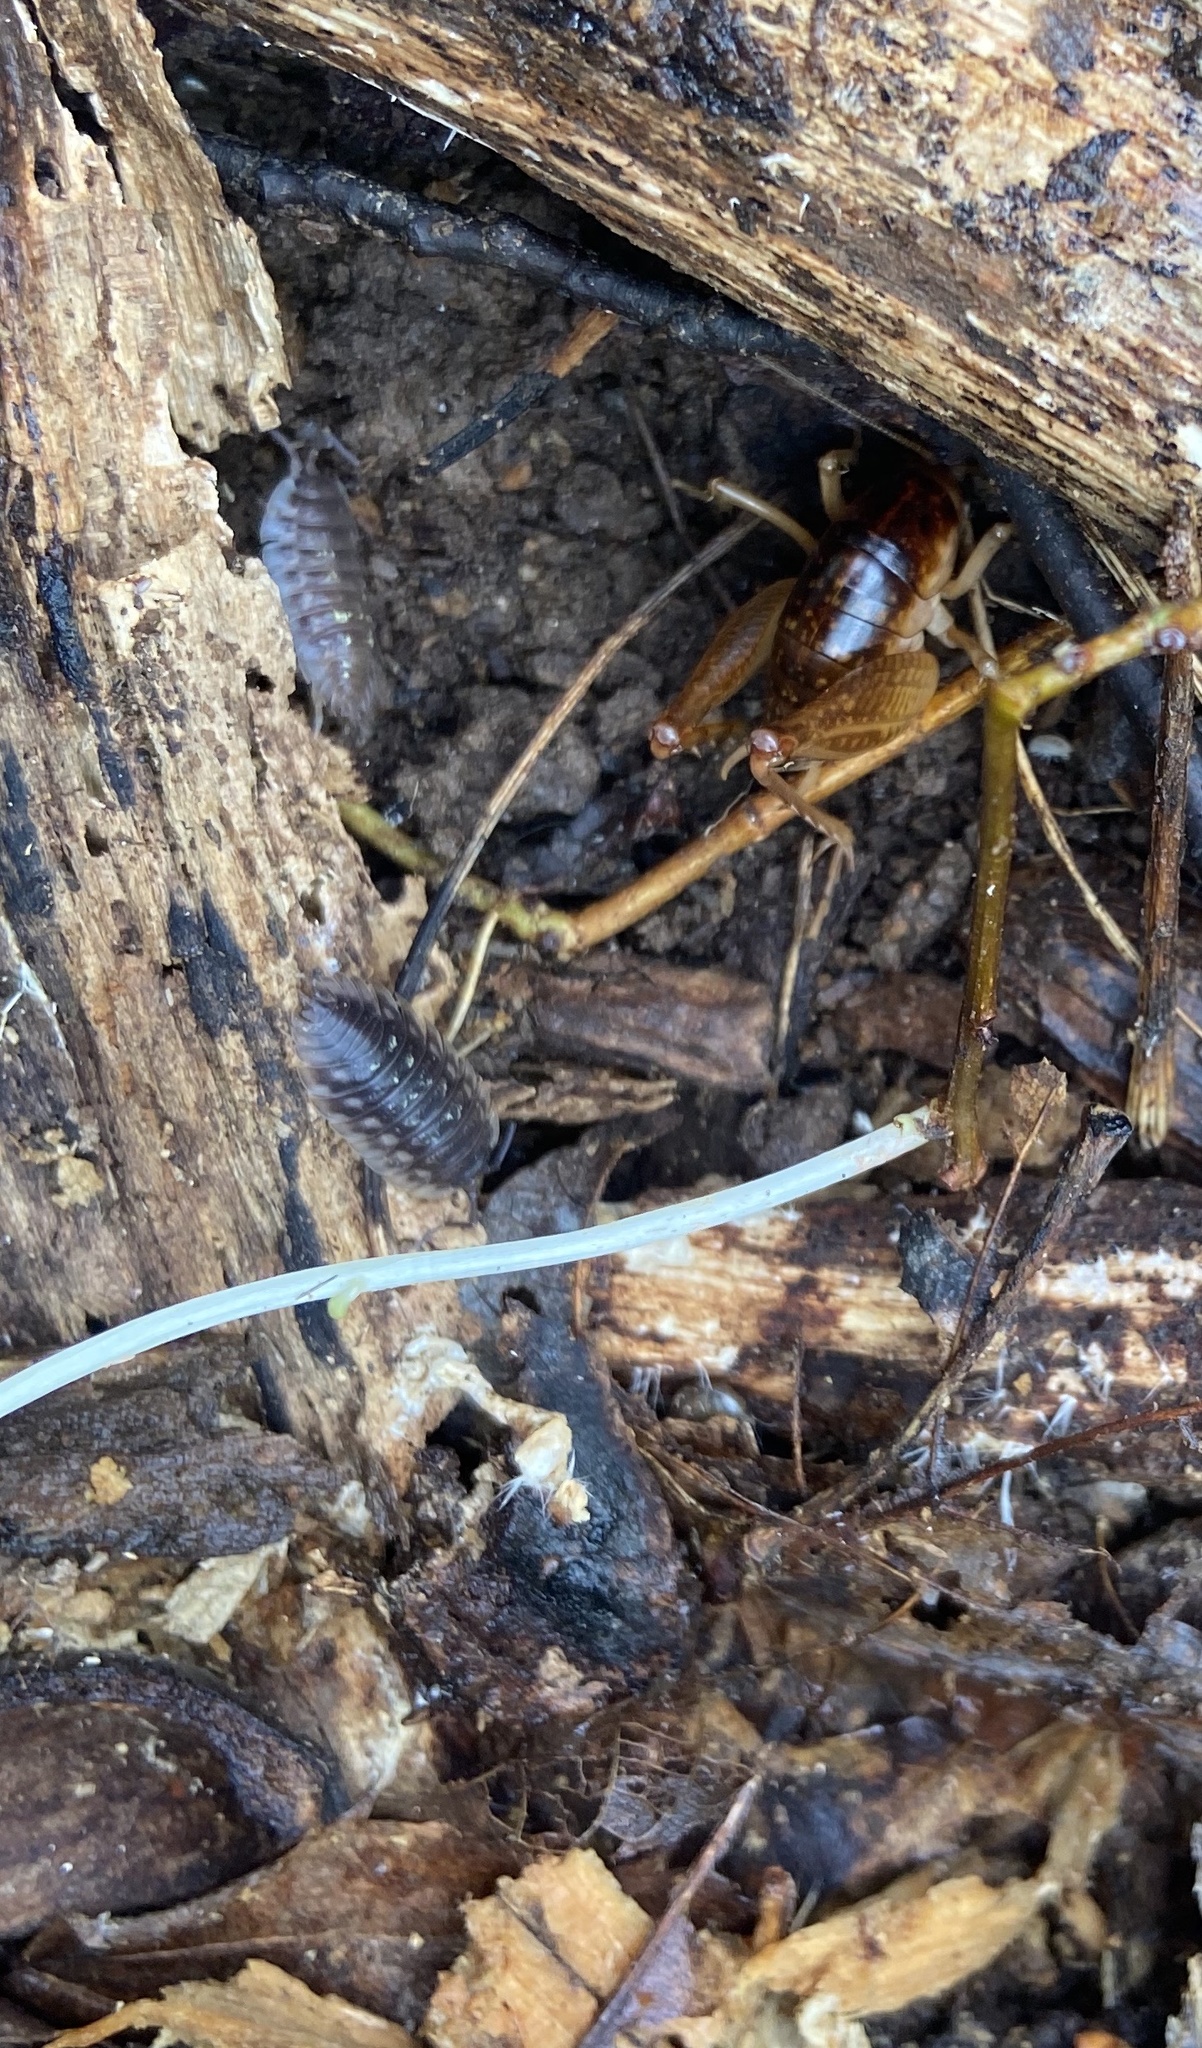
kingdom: Animalia
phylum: Arthropoda
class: Malacostraca
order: Isopoda
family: Oniscidae
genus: Oniscus
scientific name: Oniscus asellus
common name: Common shiny woodlouse
